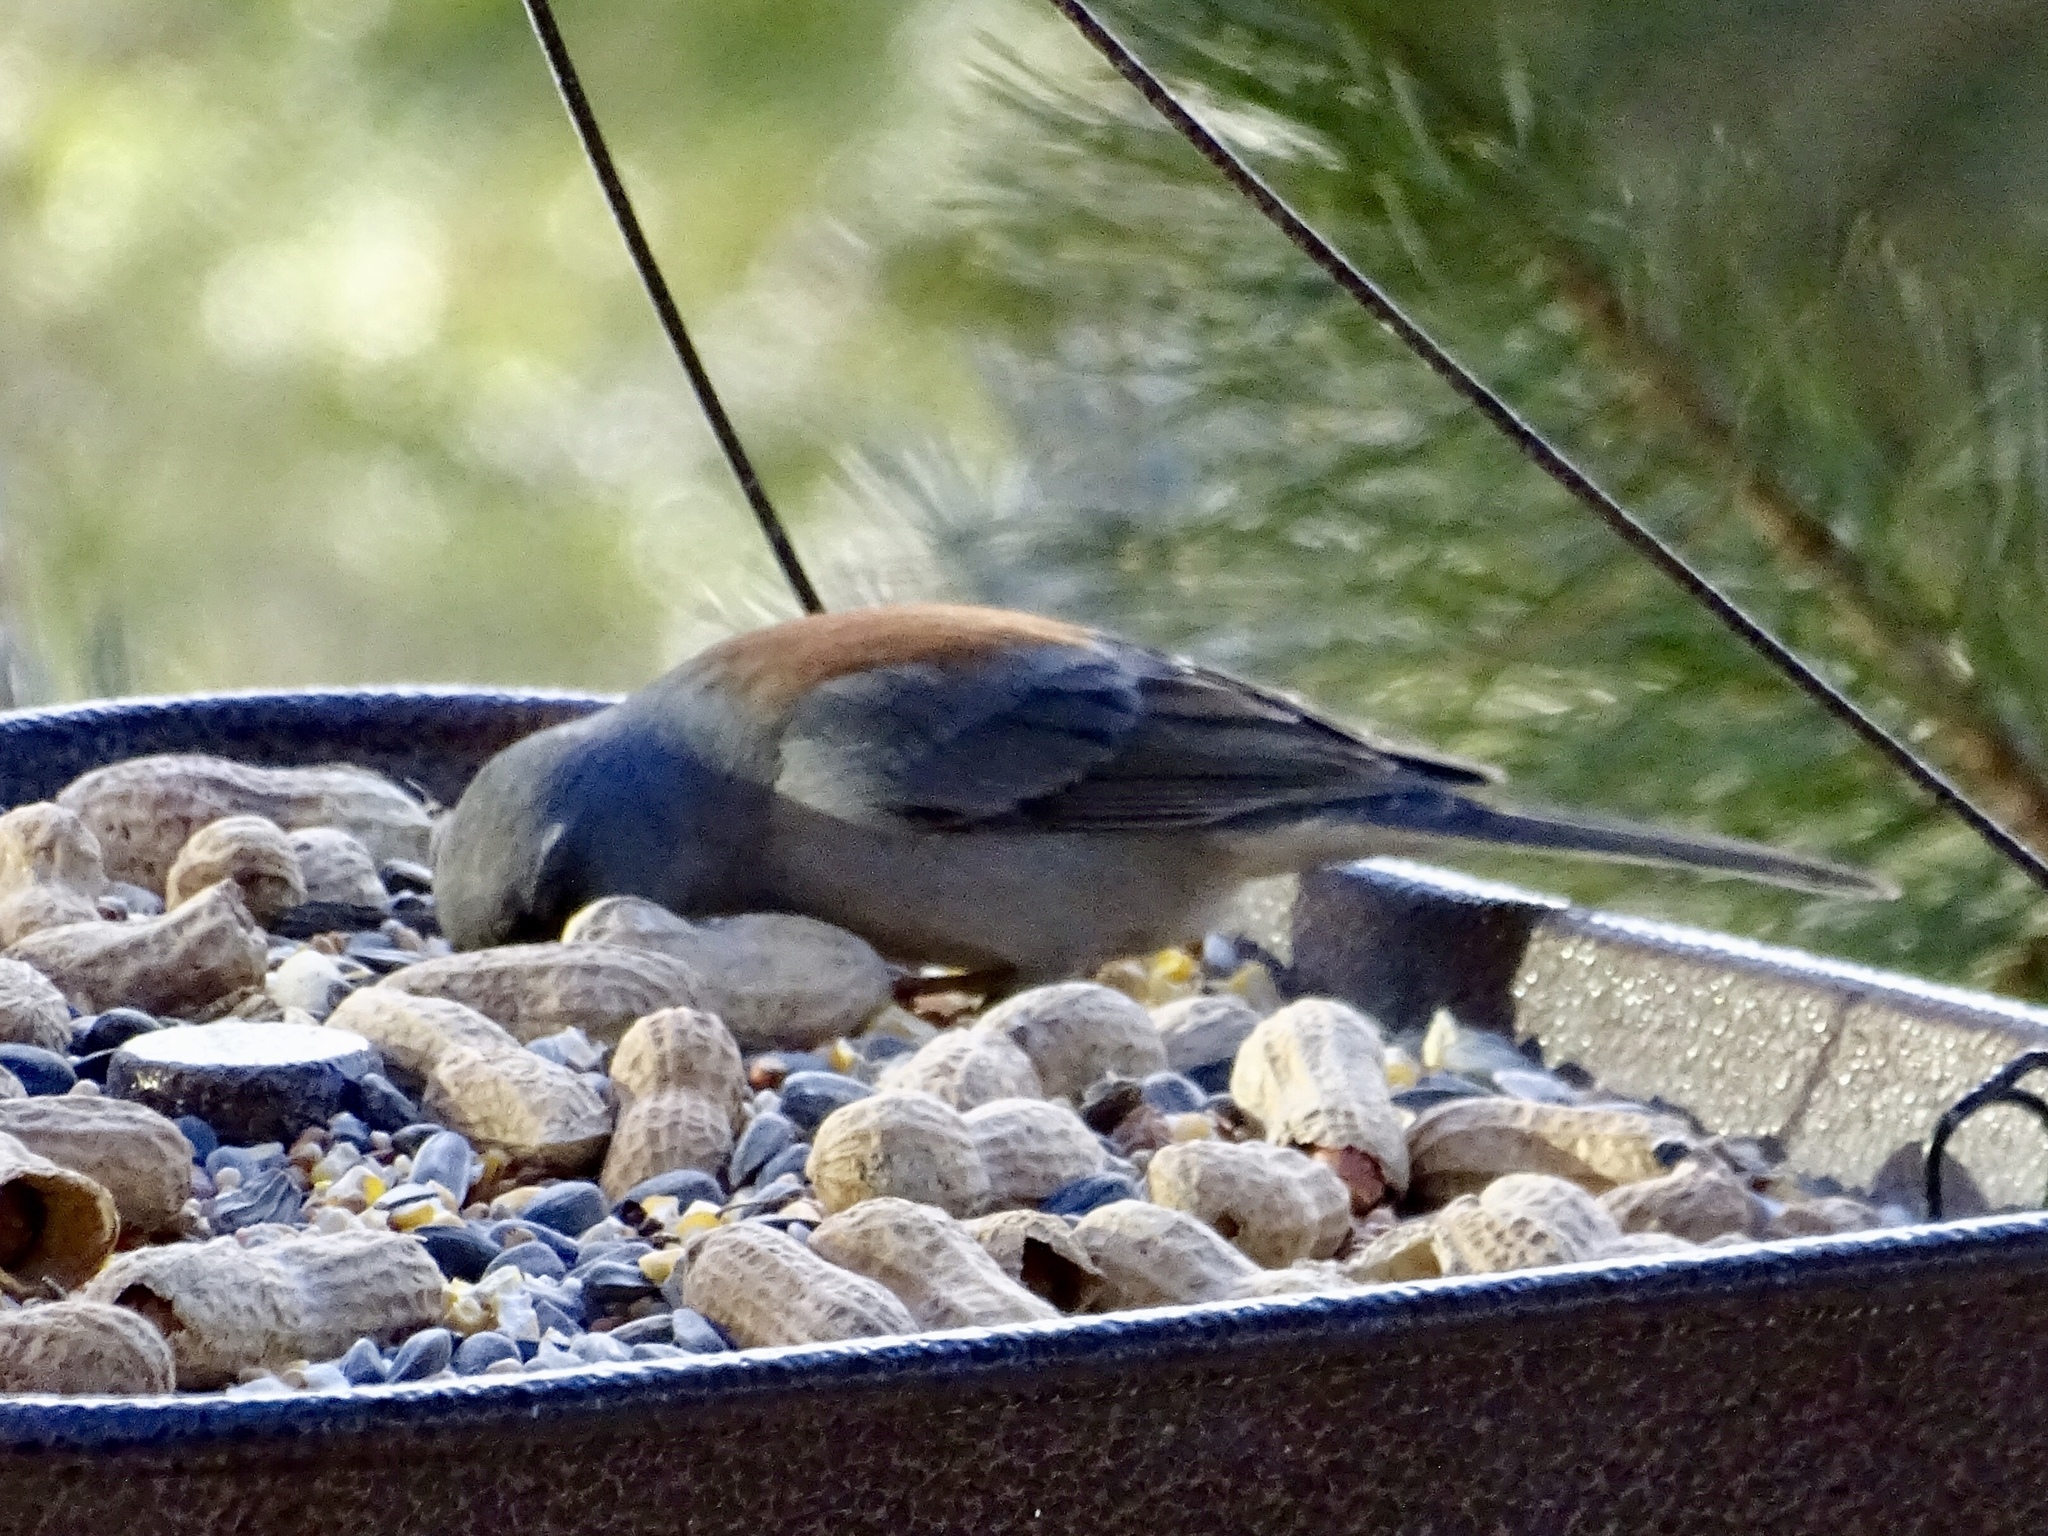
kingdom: Animalia
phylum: Chordata
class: Aves
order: Passeriformes
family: Passerellidae
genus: Junco
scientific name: Junco hyemalis
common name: Dark-eyed junco
